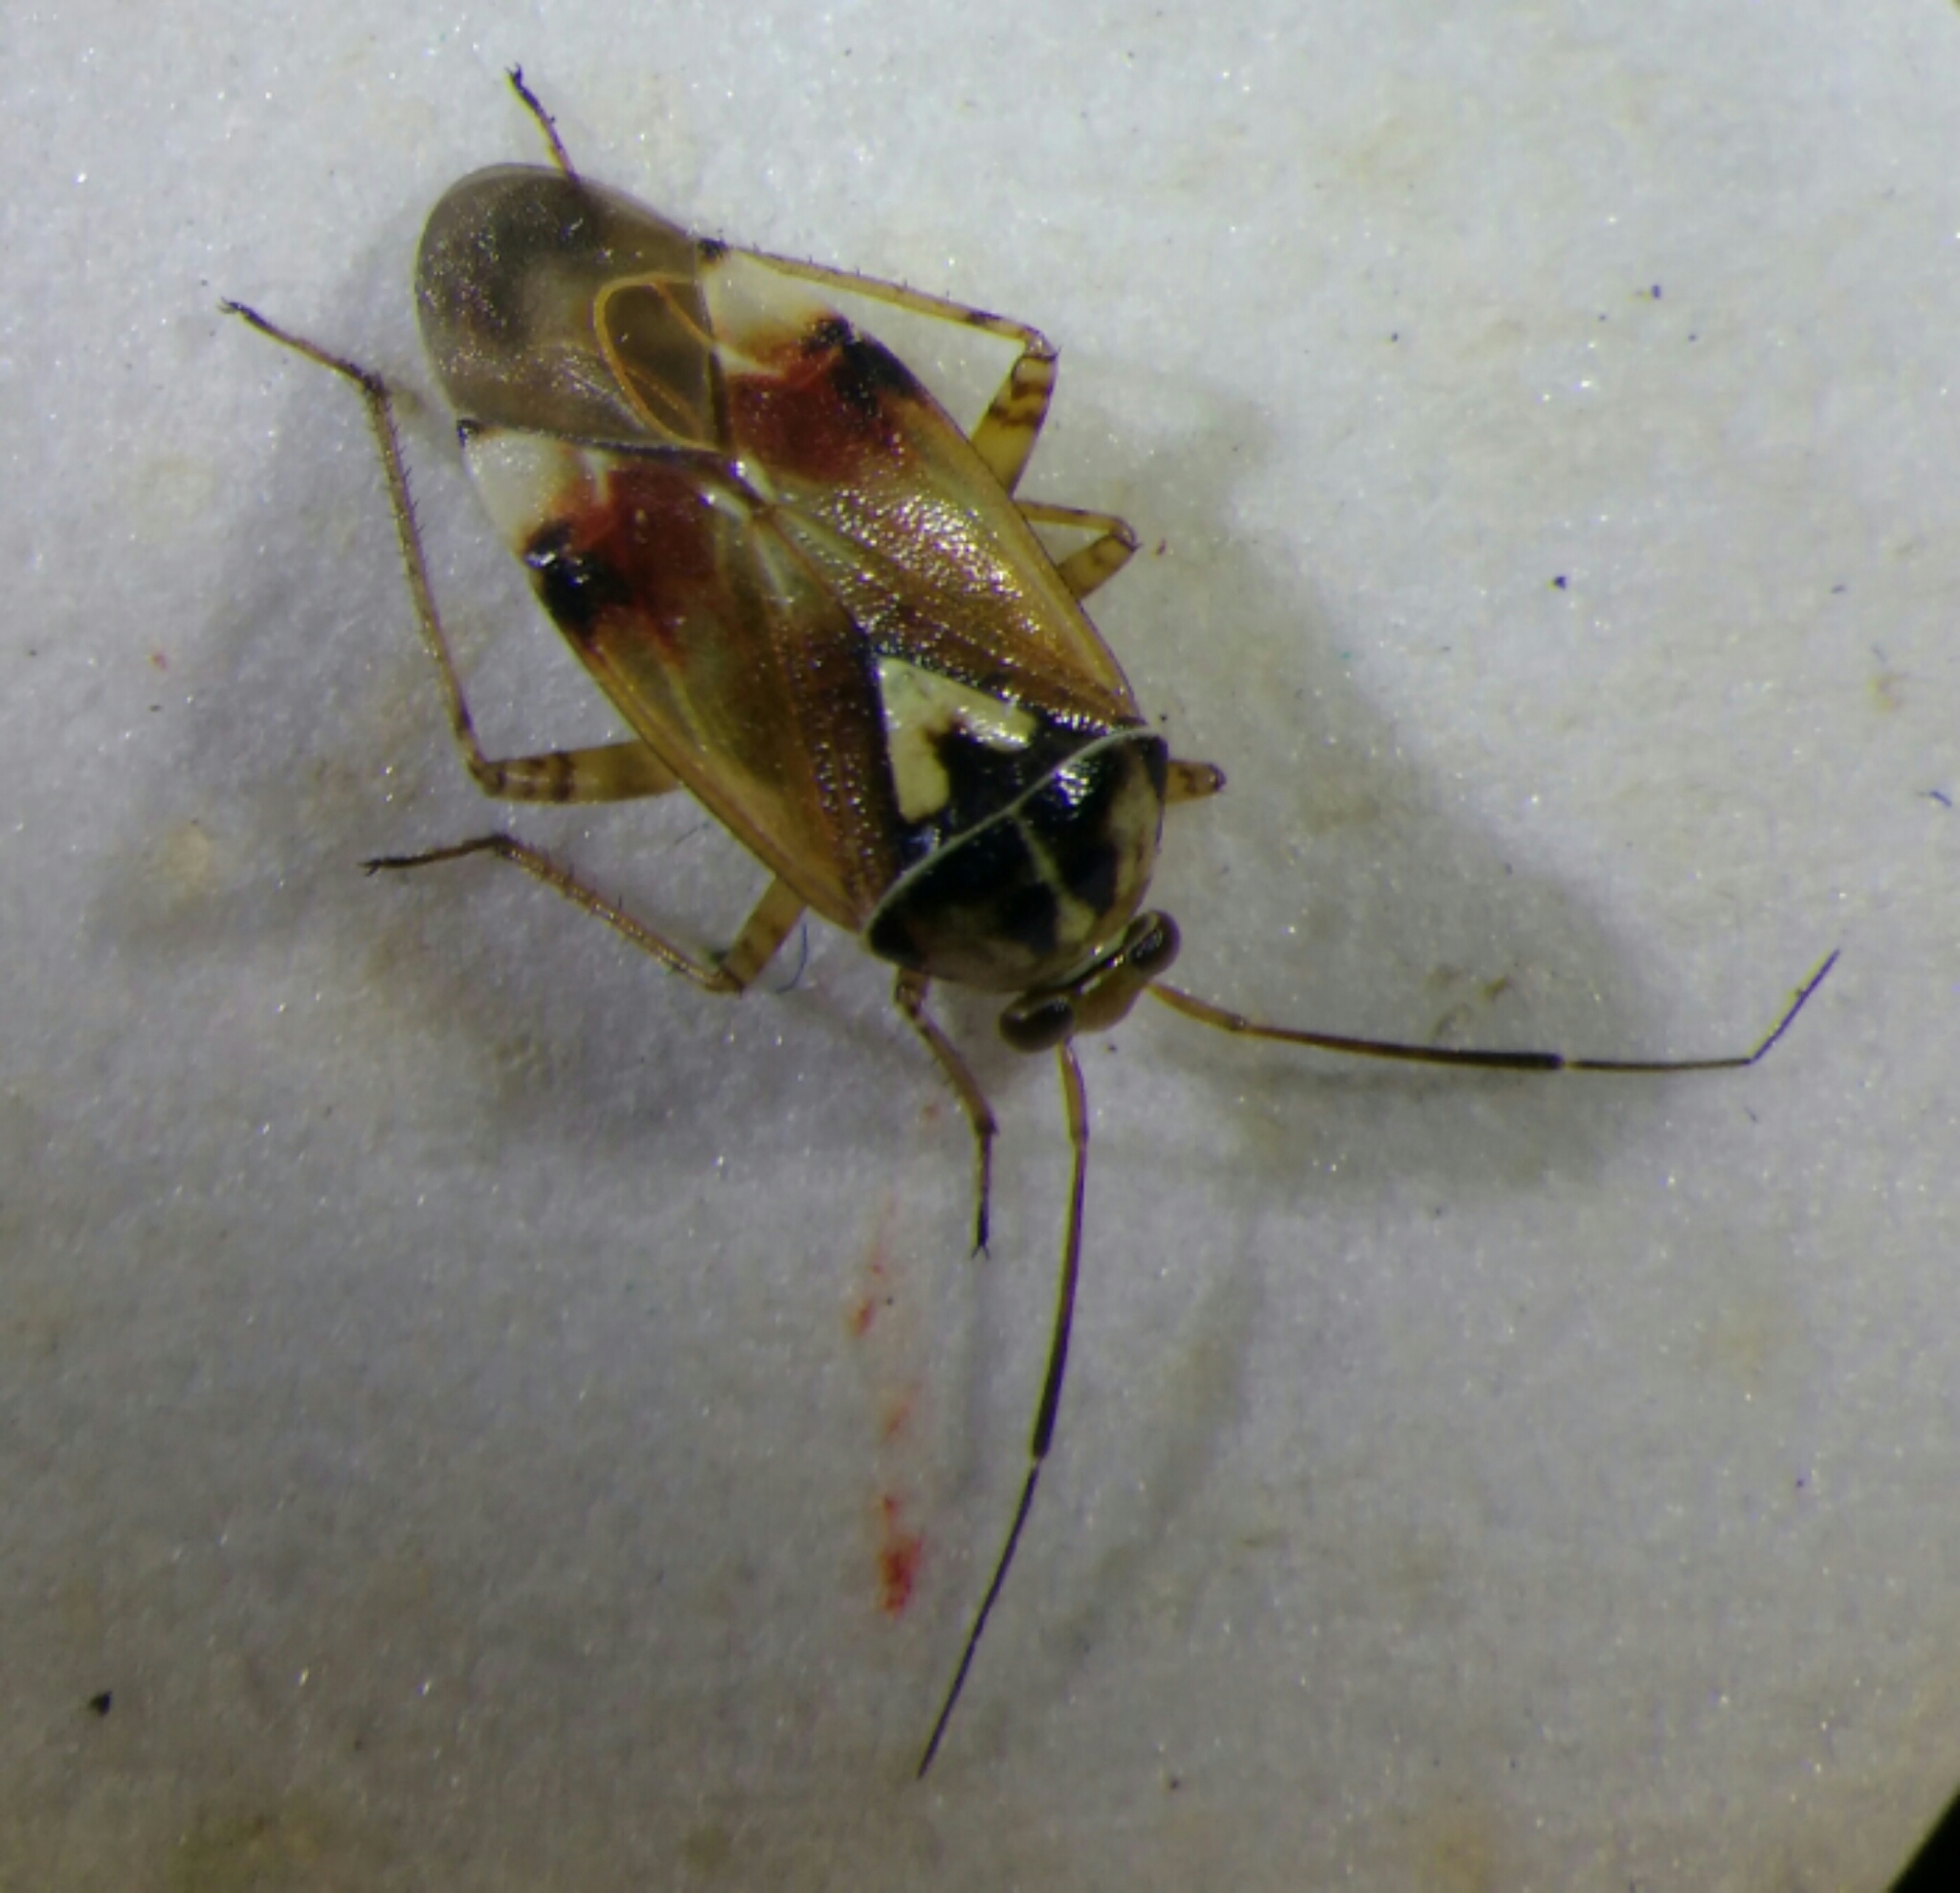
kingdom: Animalia
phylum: Arthropoda
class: Insecta
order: Hemiptera
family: Miridae
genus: Lygus
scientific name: Lygus pratensis
